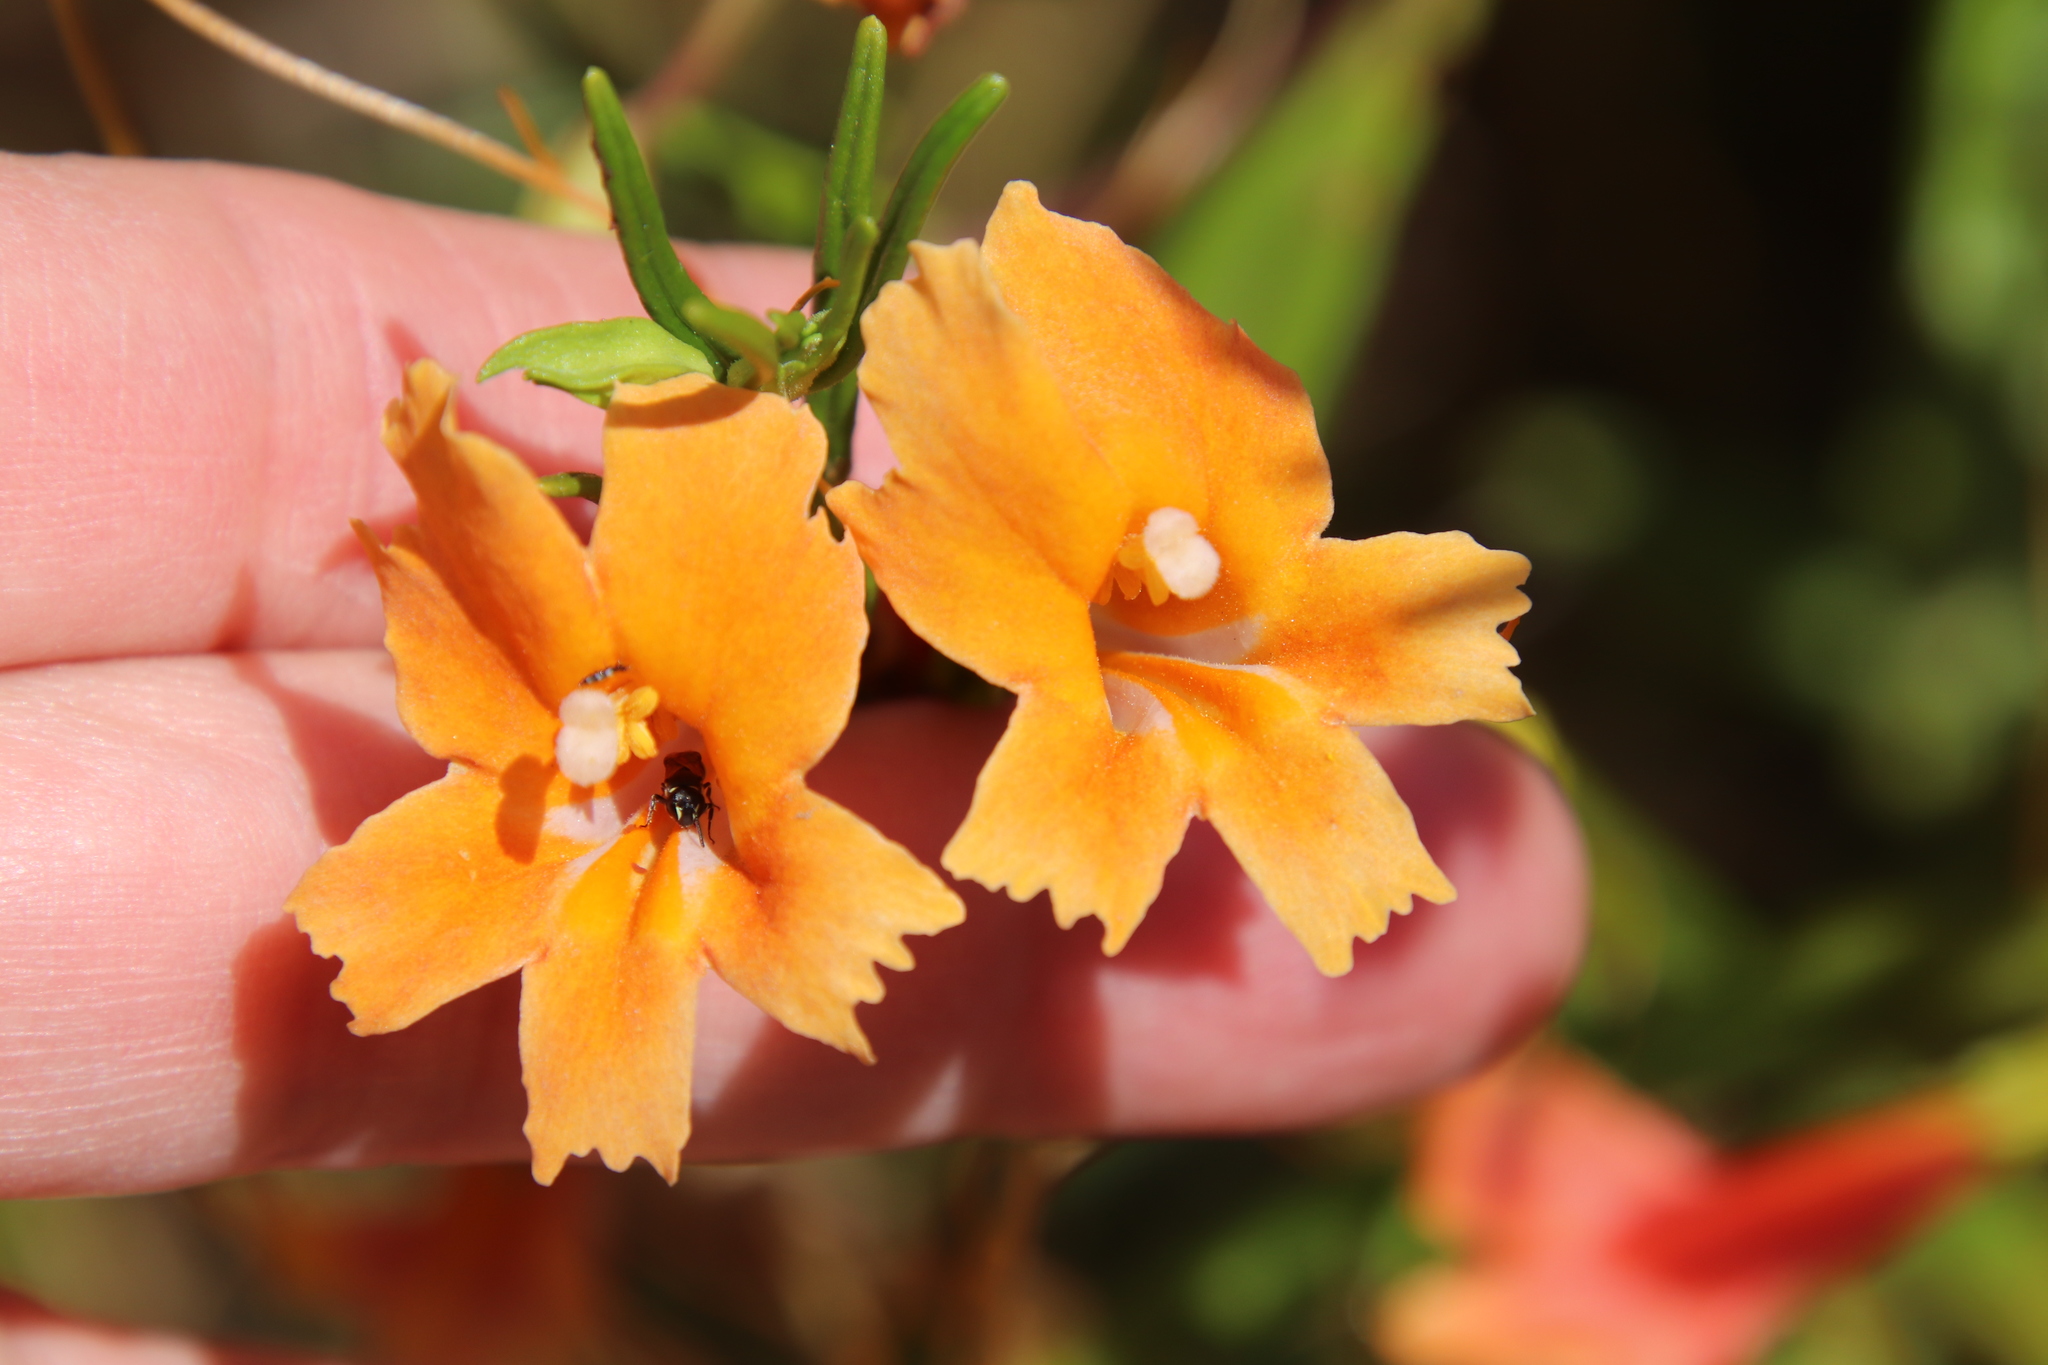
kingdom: Plantae
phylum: Tracheophyta
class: Magnoliopsida
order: Lamiales
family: Phrymaceae
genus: Diplacus
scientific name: Diplacus australis
